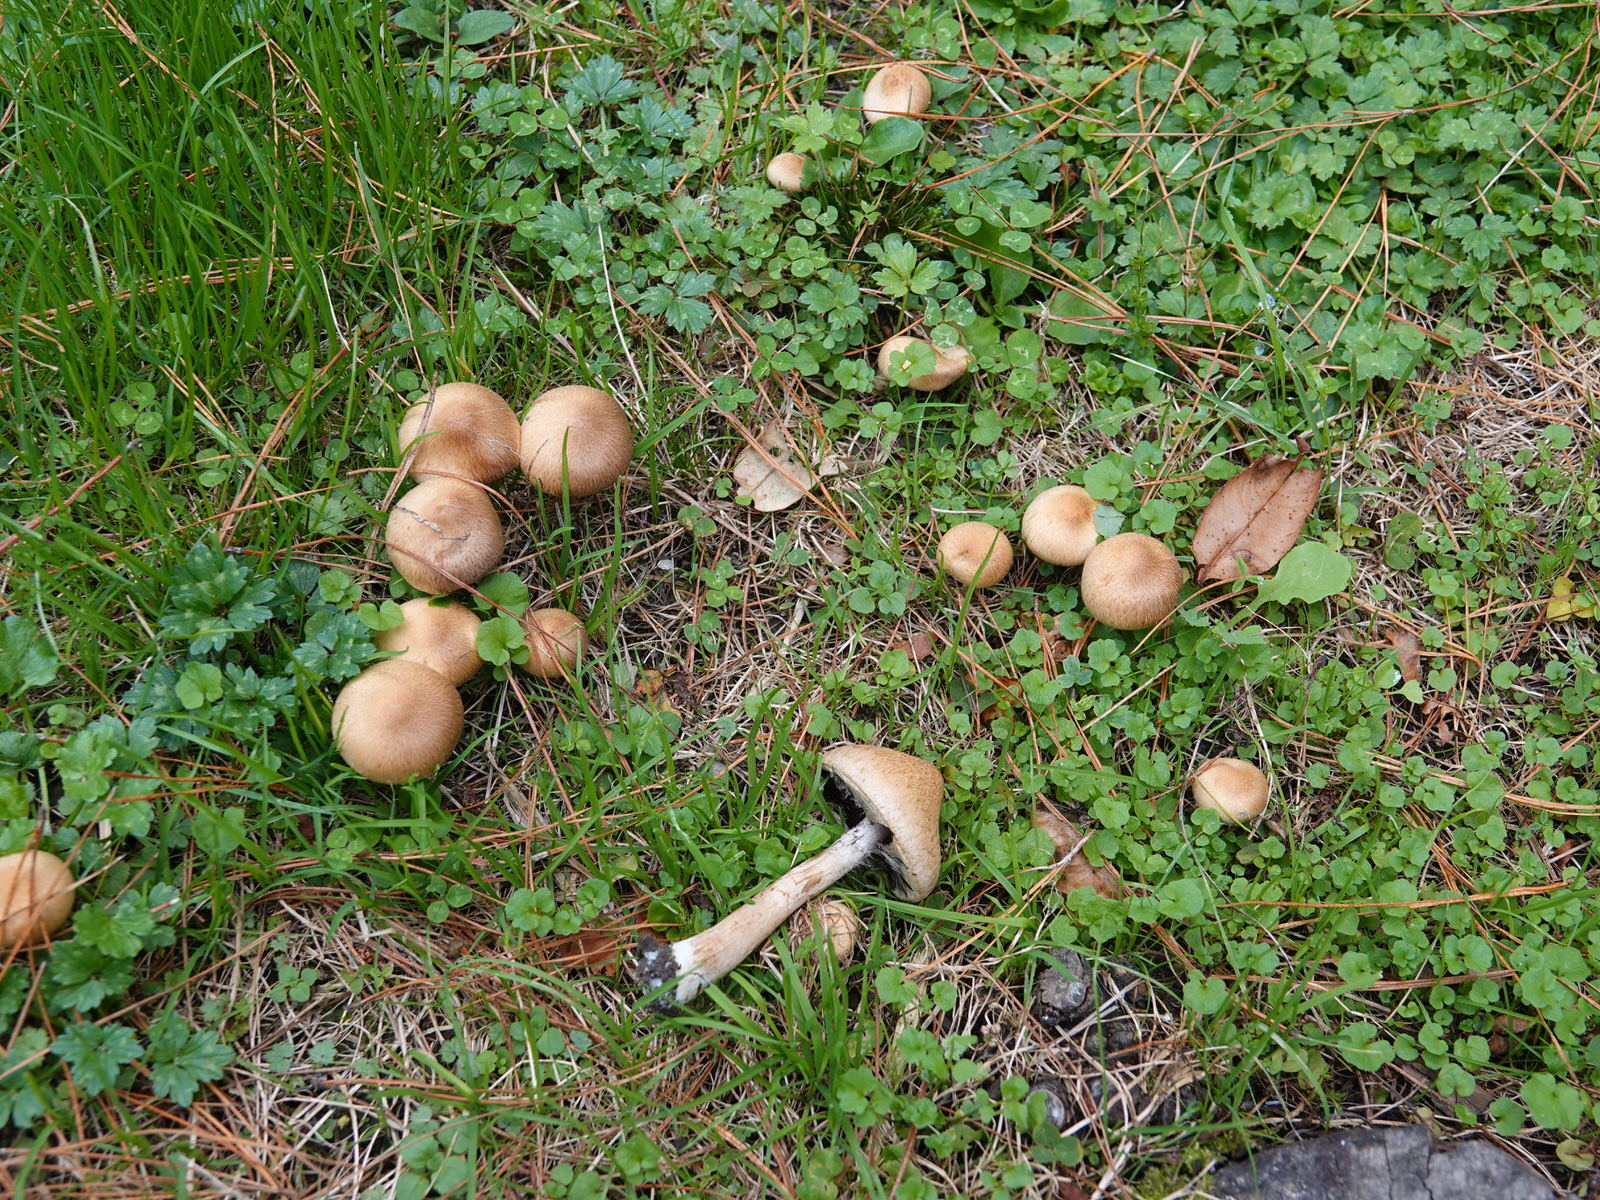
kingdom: Fungi
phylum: Basidiomycota
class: Agaricomycetes
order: Agaricales
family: Psathyrellaceae
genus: Lacrymaria
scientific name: Lacrymaria lacrymabunda
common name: Weeping widow
